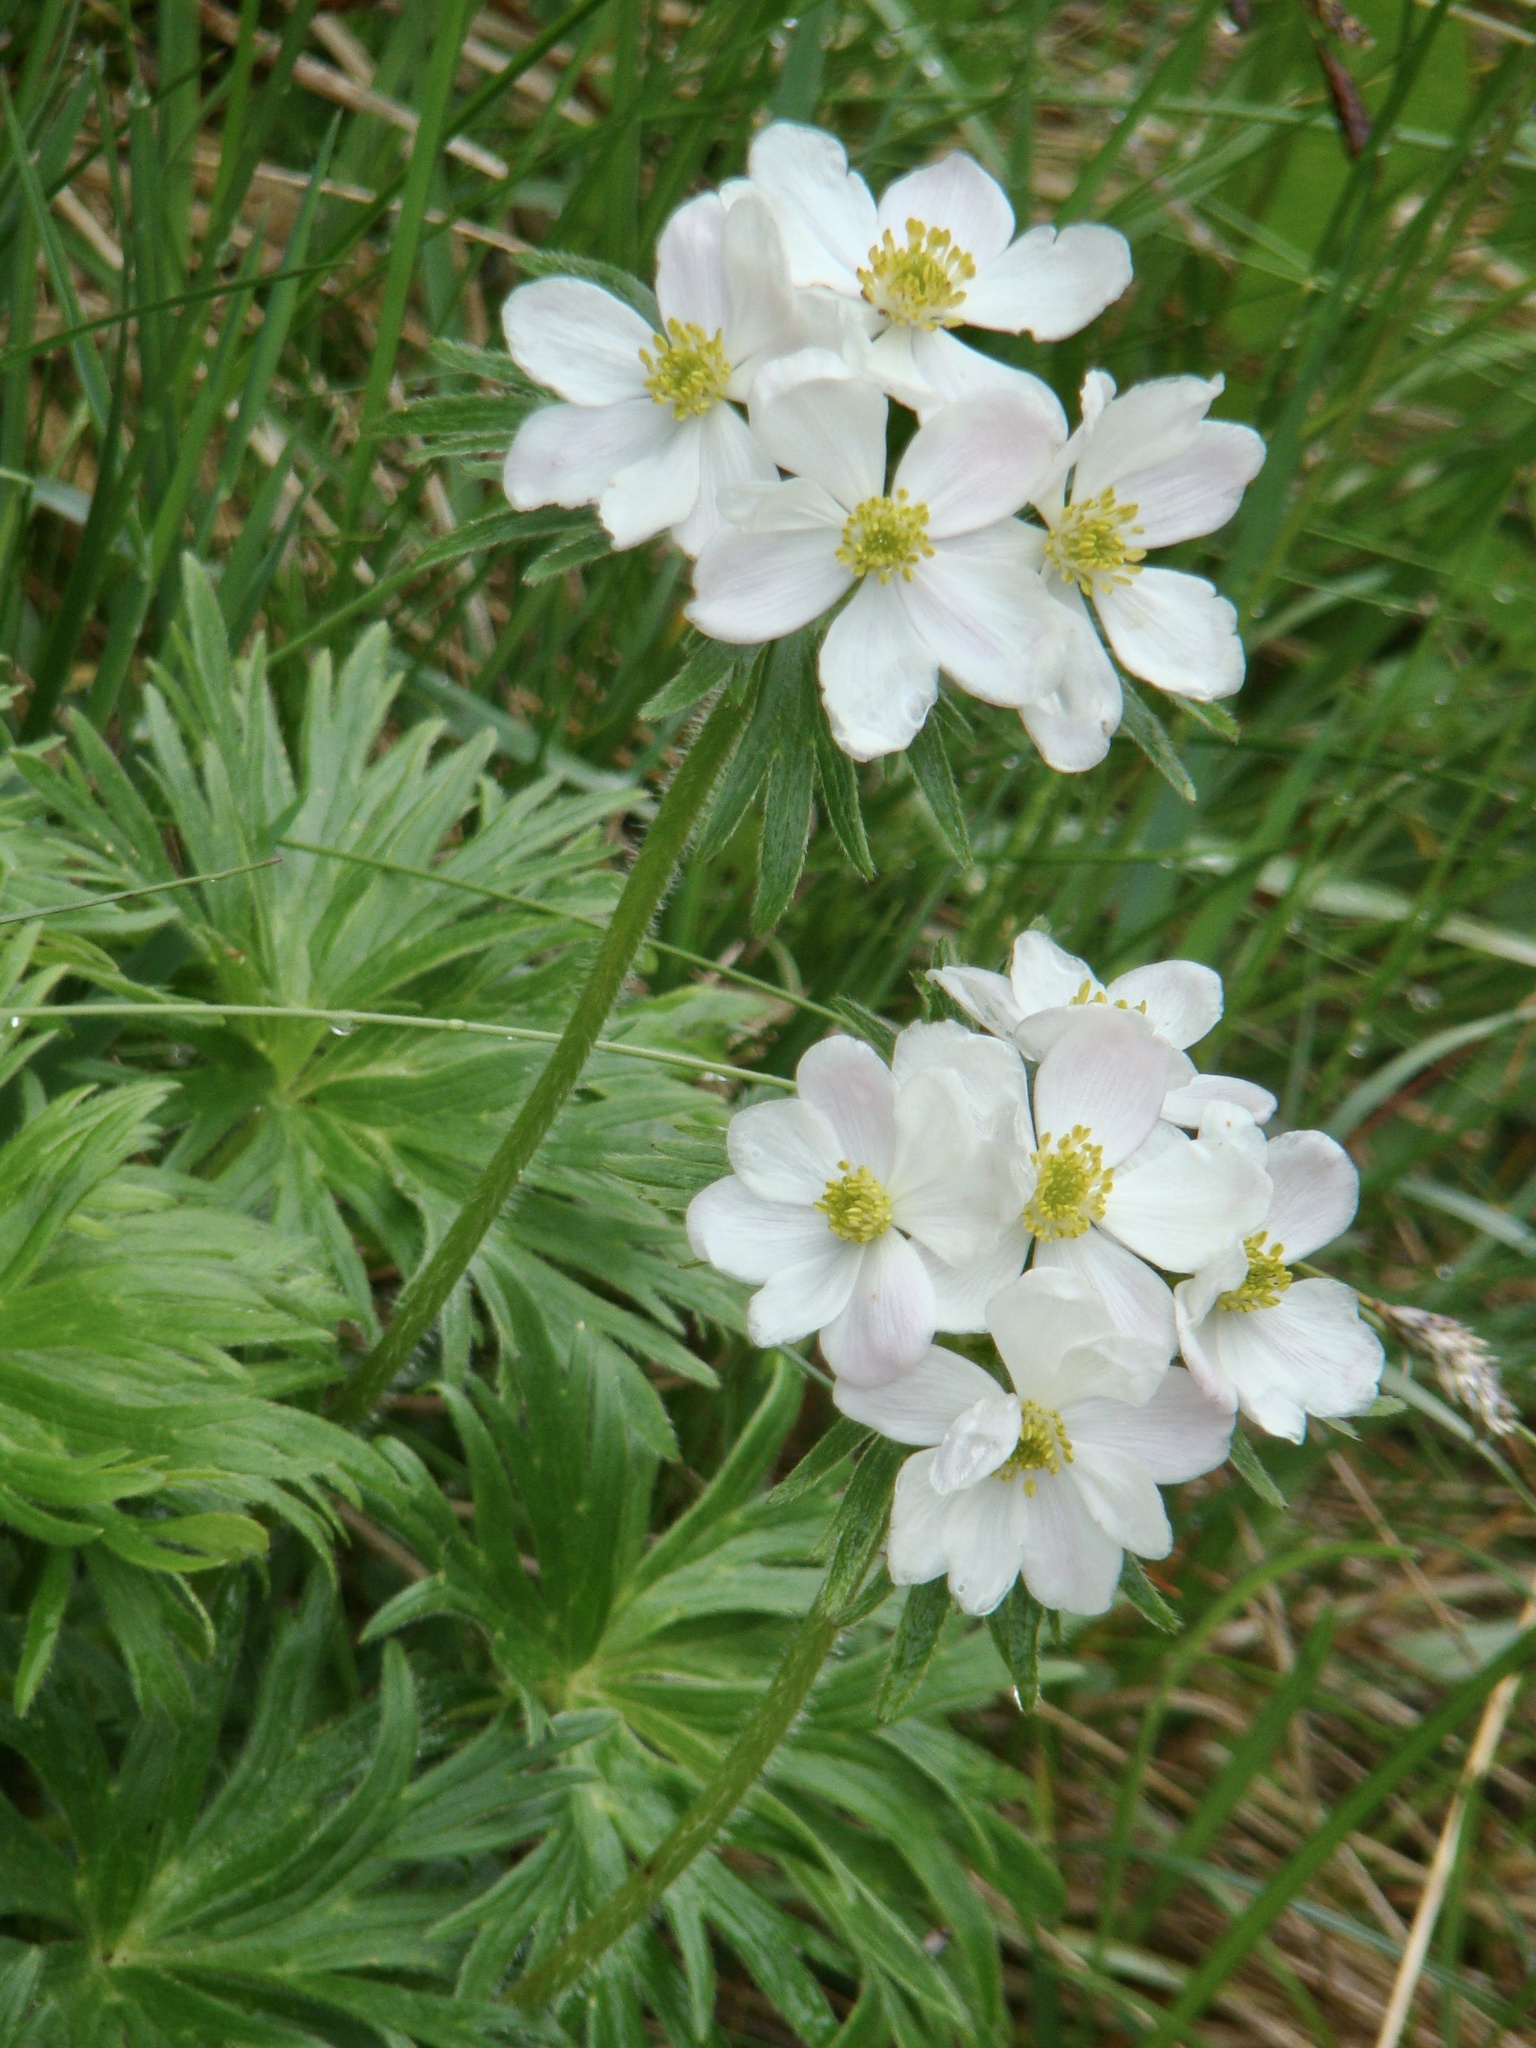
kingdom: Plantae
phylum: Tracheophyta
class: Magnoliopsida
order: Ranunculales
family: Ranunculaceae
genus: Anemonastrum
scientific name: Anemonastrum narcissiflorum
